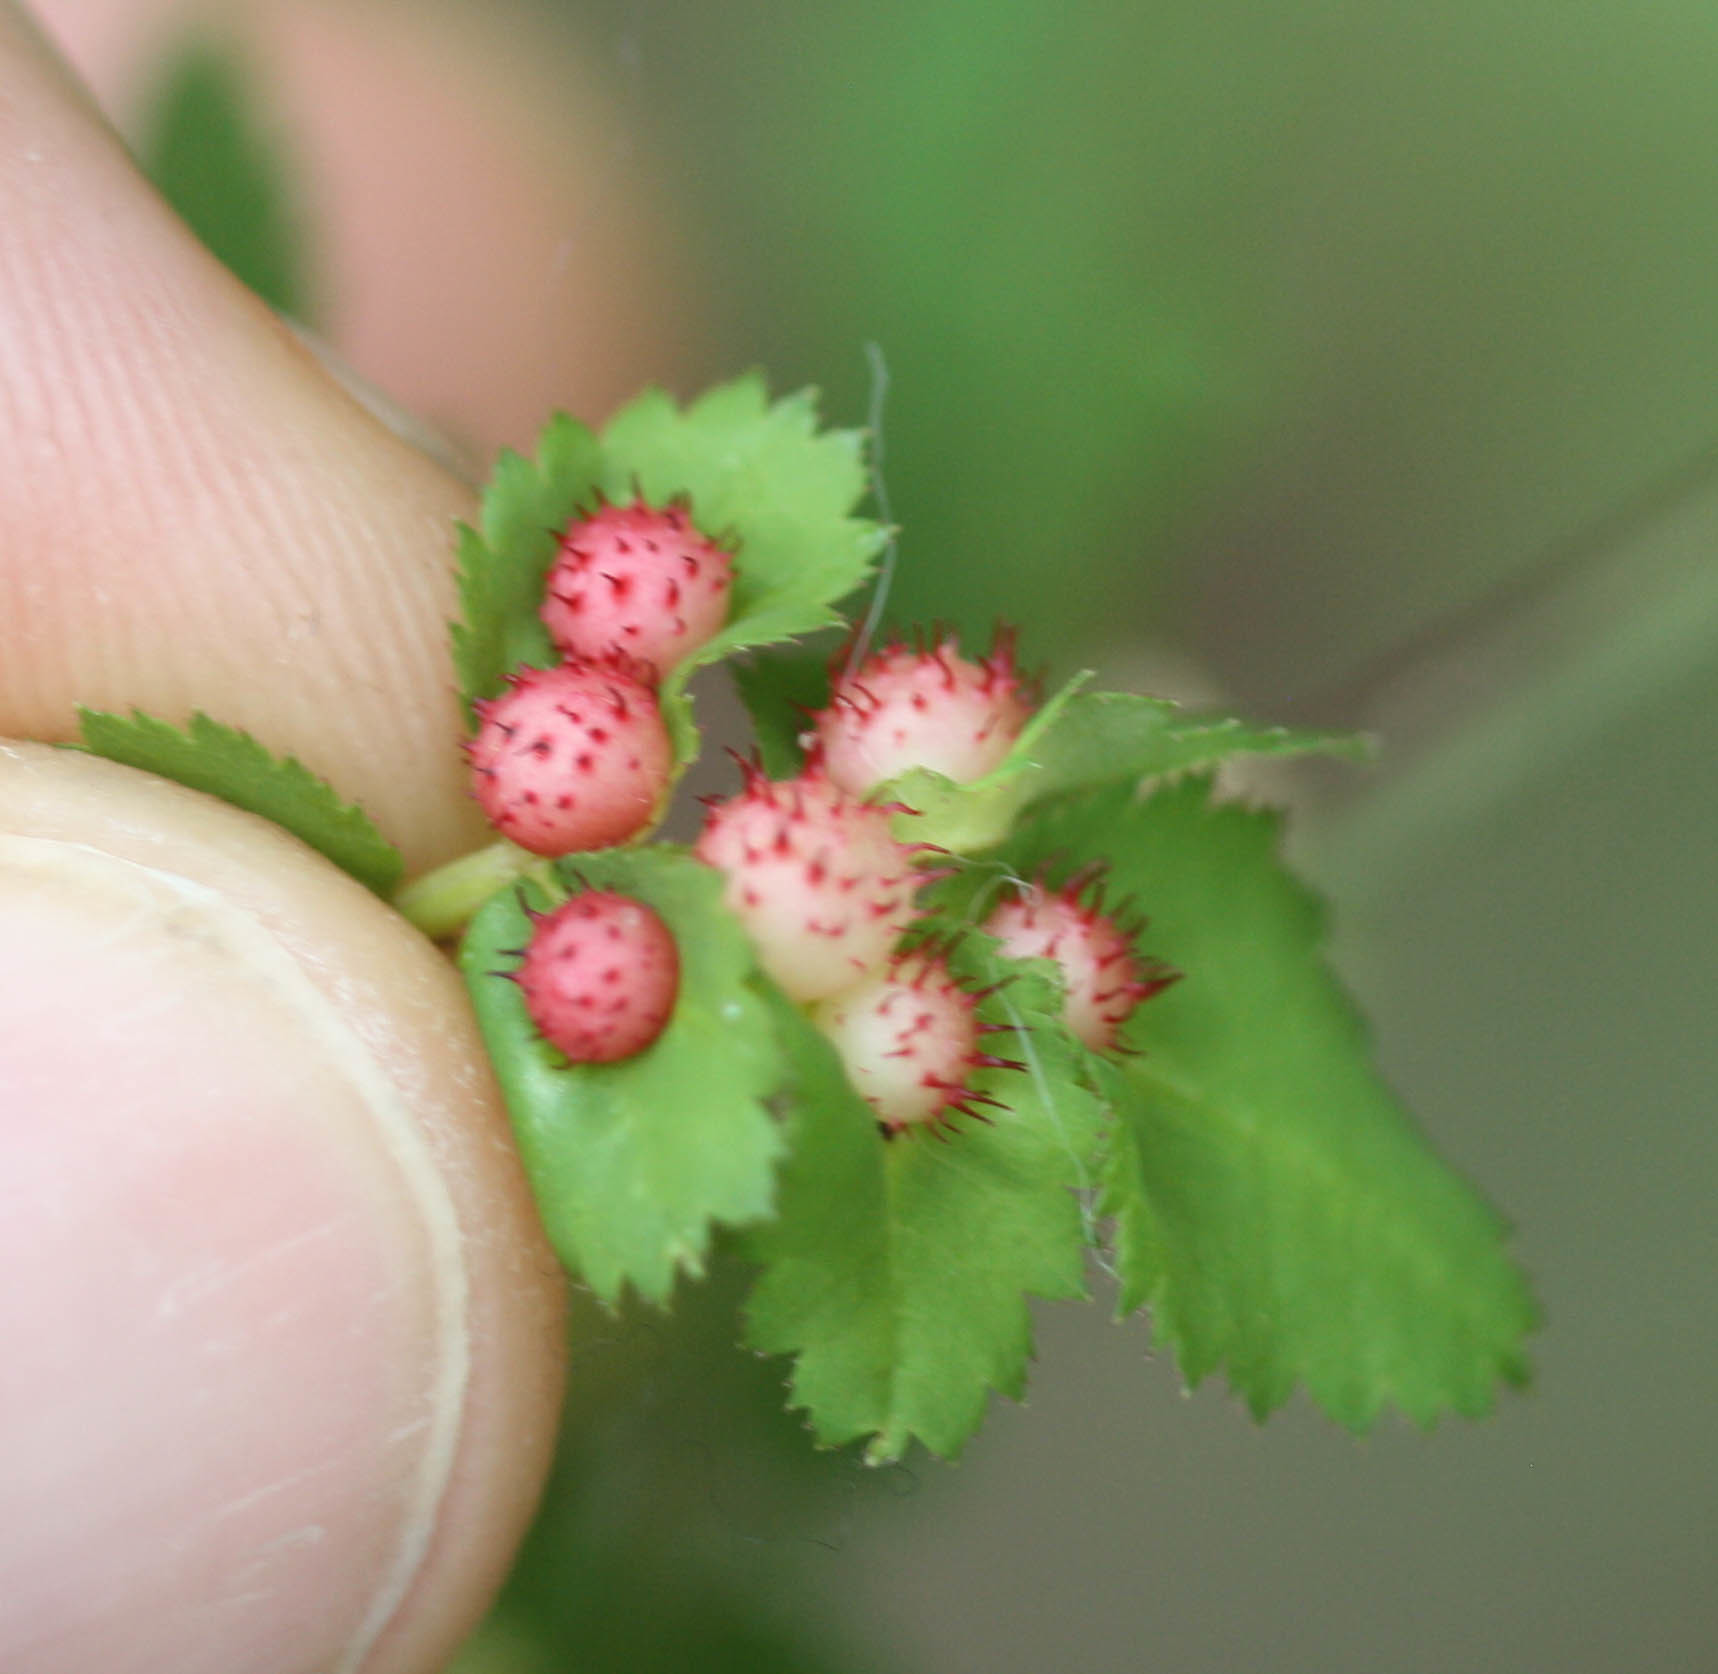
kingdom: Animalia
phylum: Arthropoda
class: Insecta
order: Hymenoptera
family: Cynipidae
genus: Diplolepis
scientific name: Diplolepis polita
